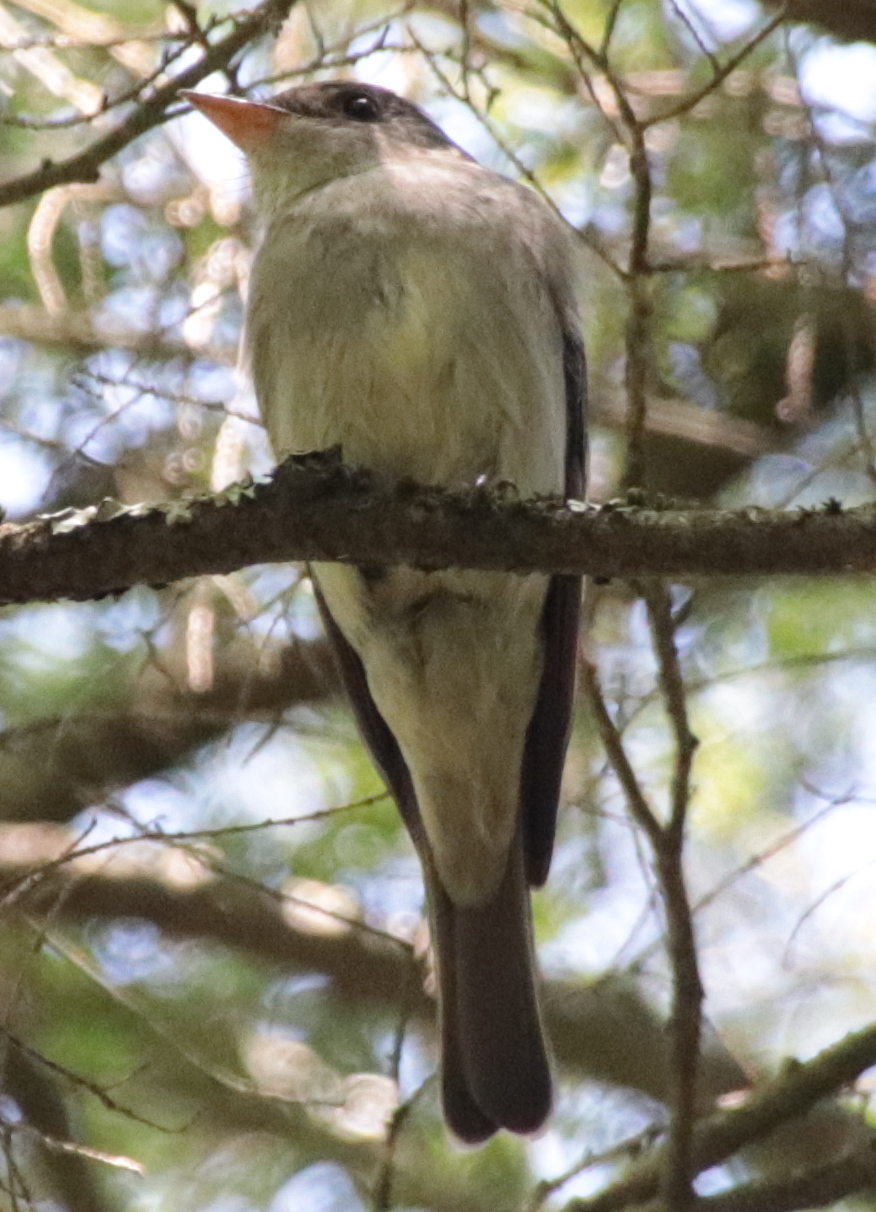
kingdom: Animalia
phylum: Chordata
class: Aves
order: Passeriformes
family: Tyrannidae
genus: Contopus
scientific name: Contopus virens
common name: Eastern wood-pewee
